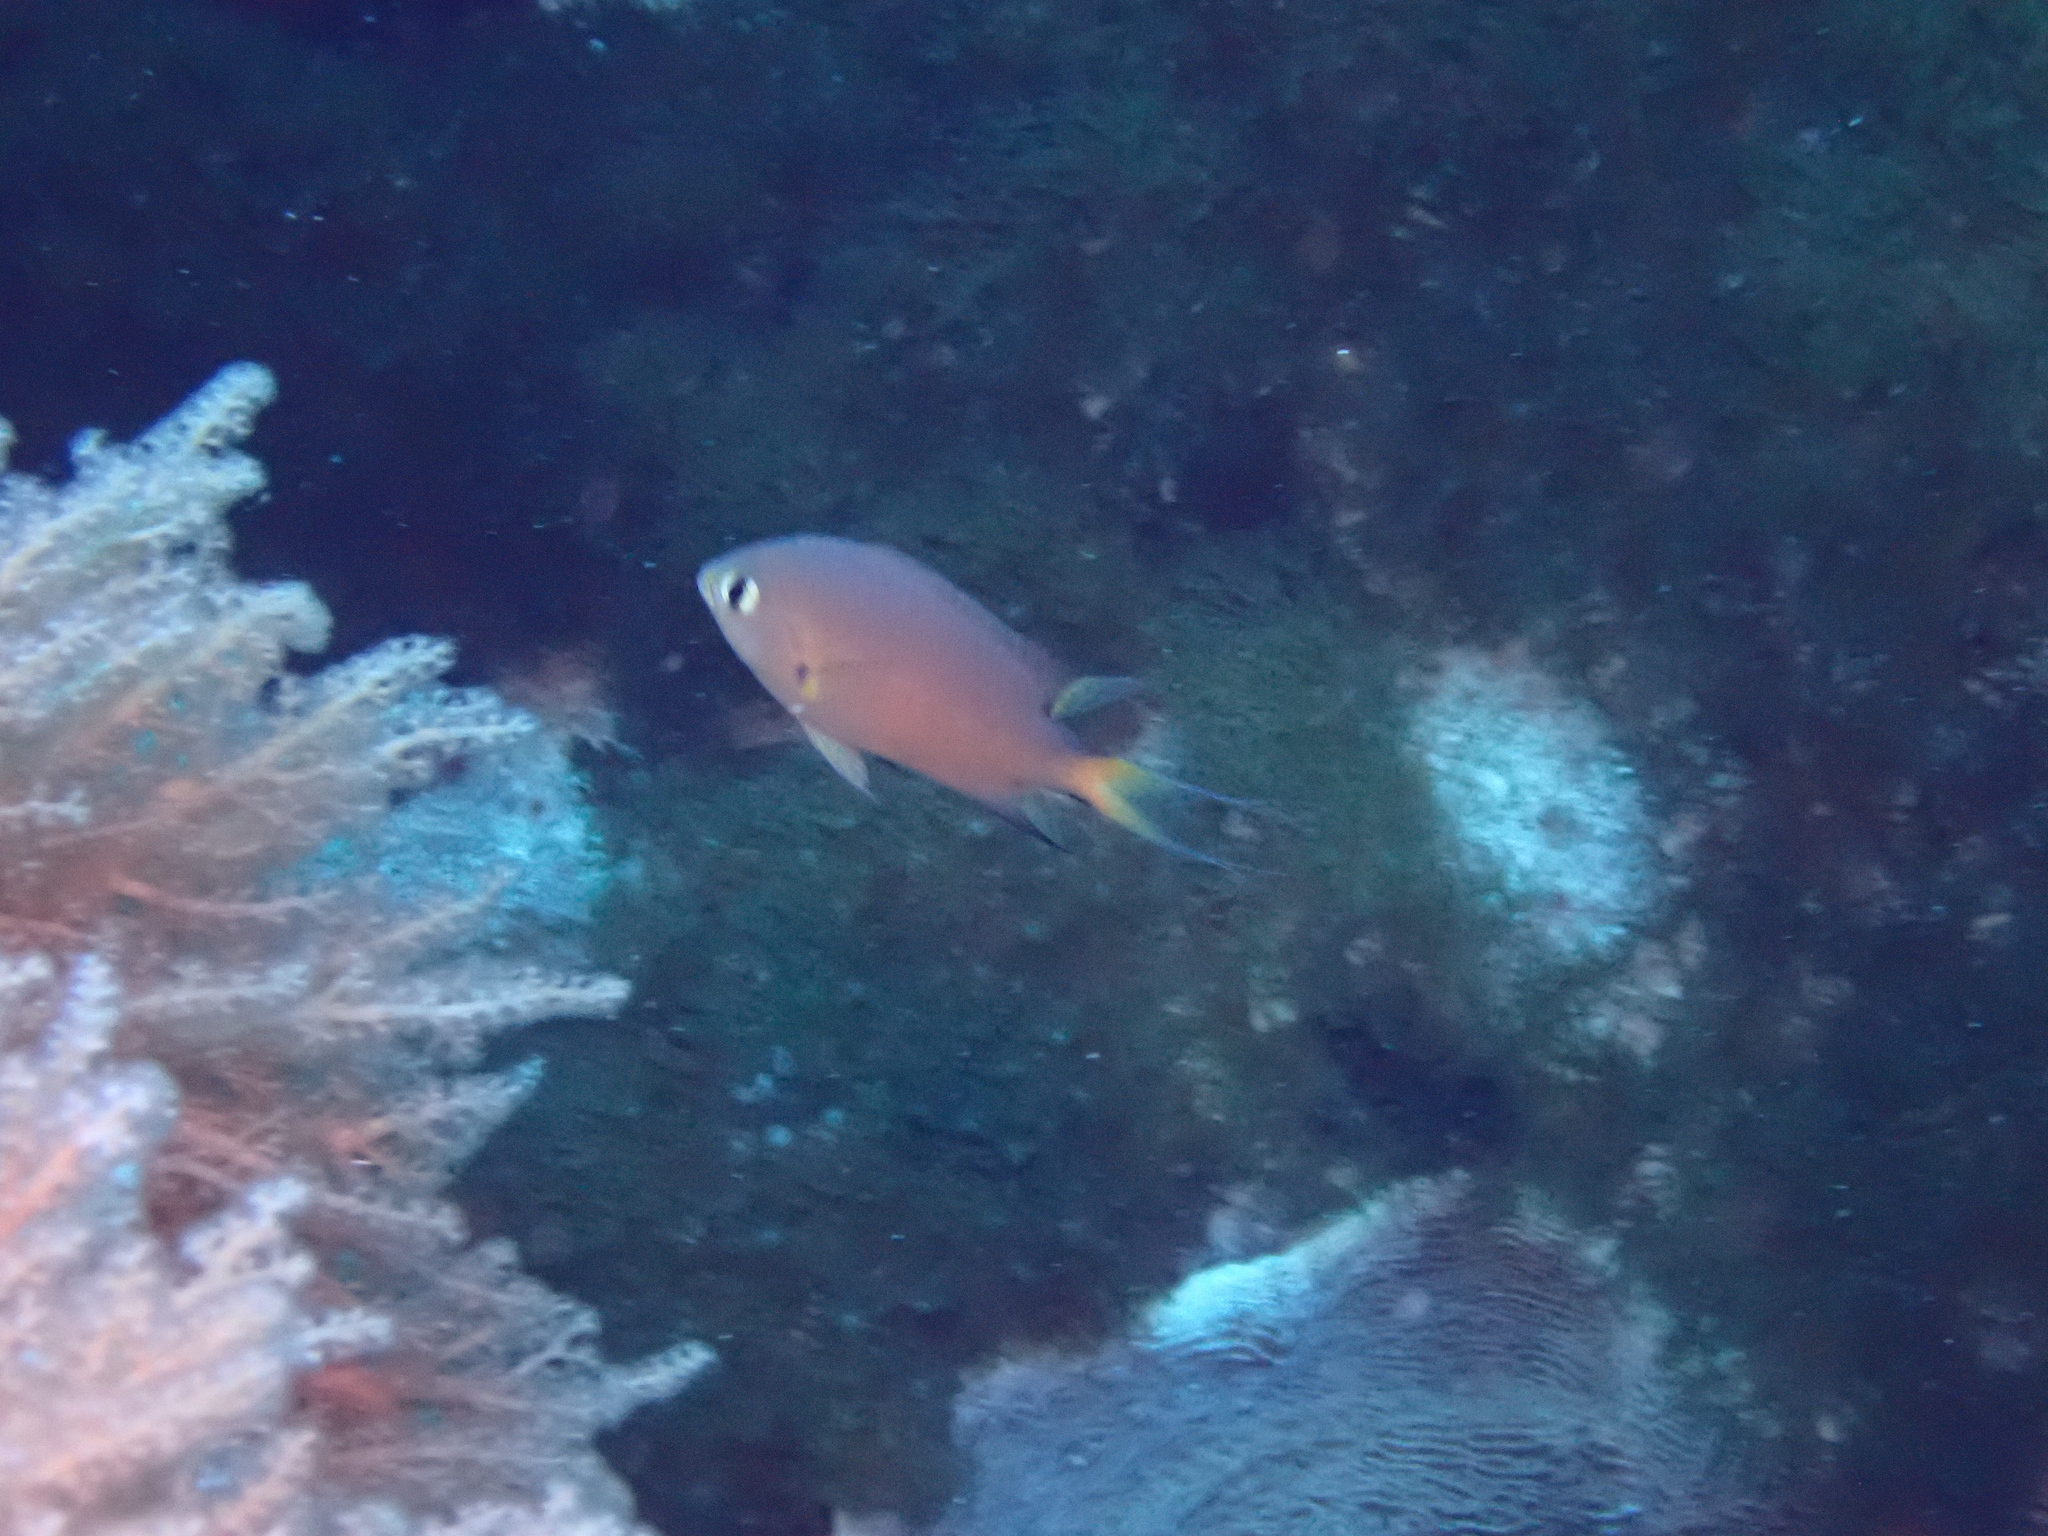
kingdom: Animalia
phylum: Chordata
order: Perciformes
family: Pomacentridae
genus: Chromis
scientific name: Chromis atripes
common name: Dark-fin chromis
